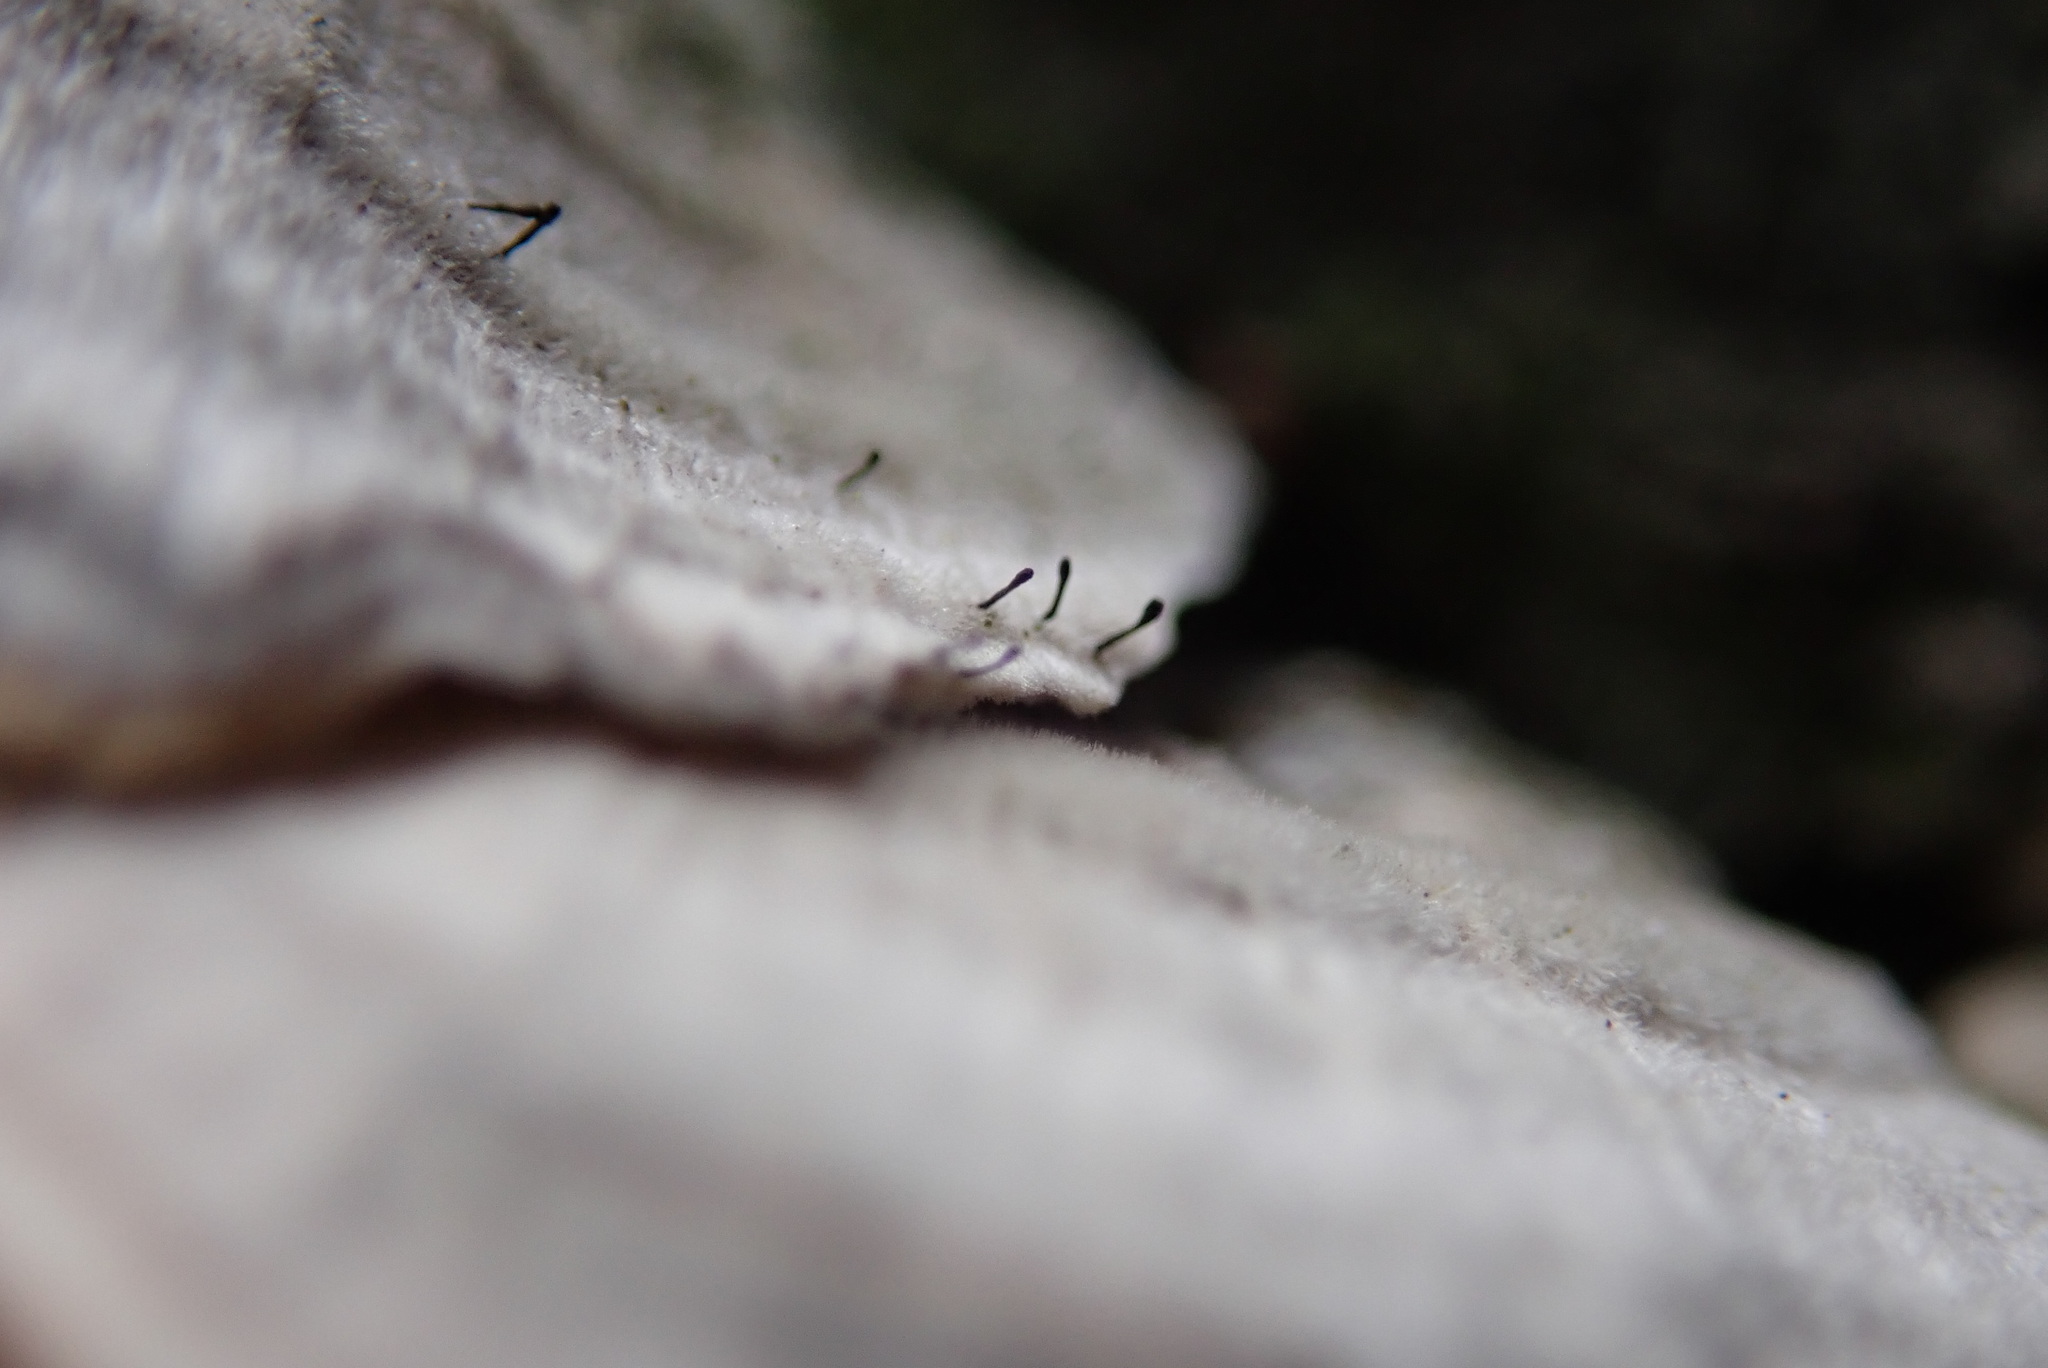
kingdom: Fungi
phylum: Ascomycota
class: Eurotiomycetes
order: Mycocaliciales
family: Mycocaliciaceae
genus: Phaeocalicium
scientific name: Phaeocalicium polyporaeum
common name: Fairy pins
